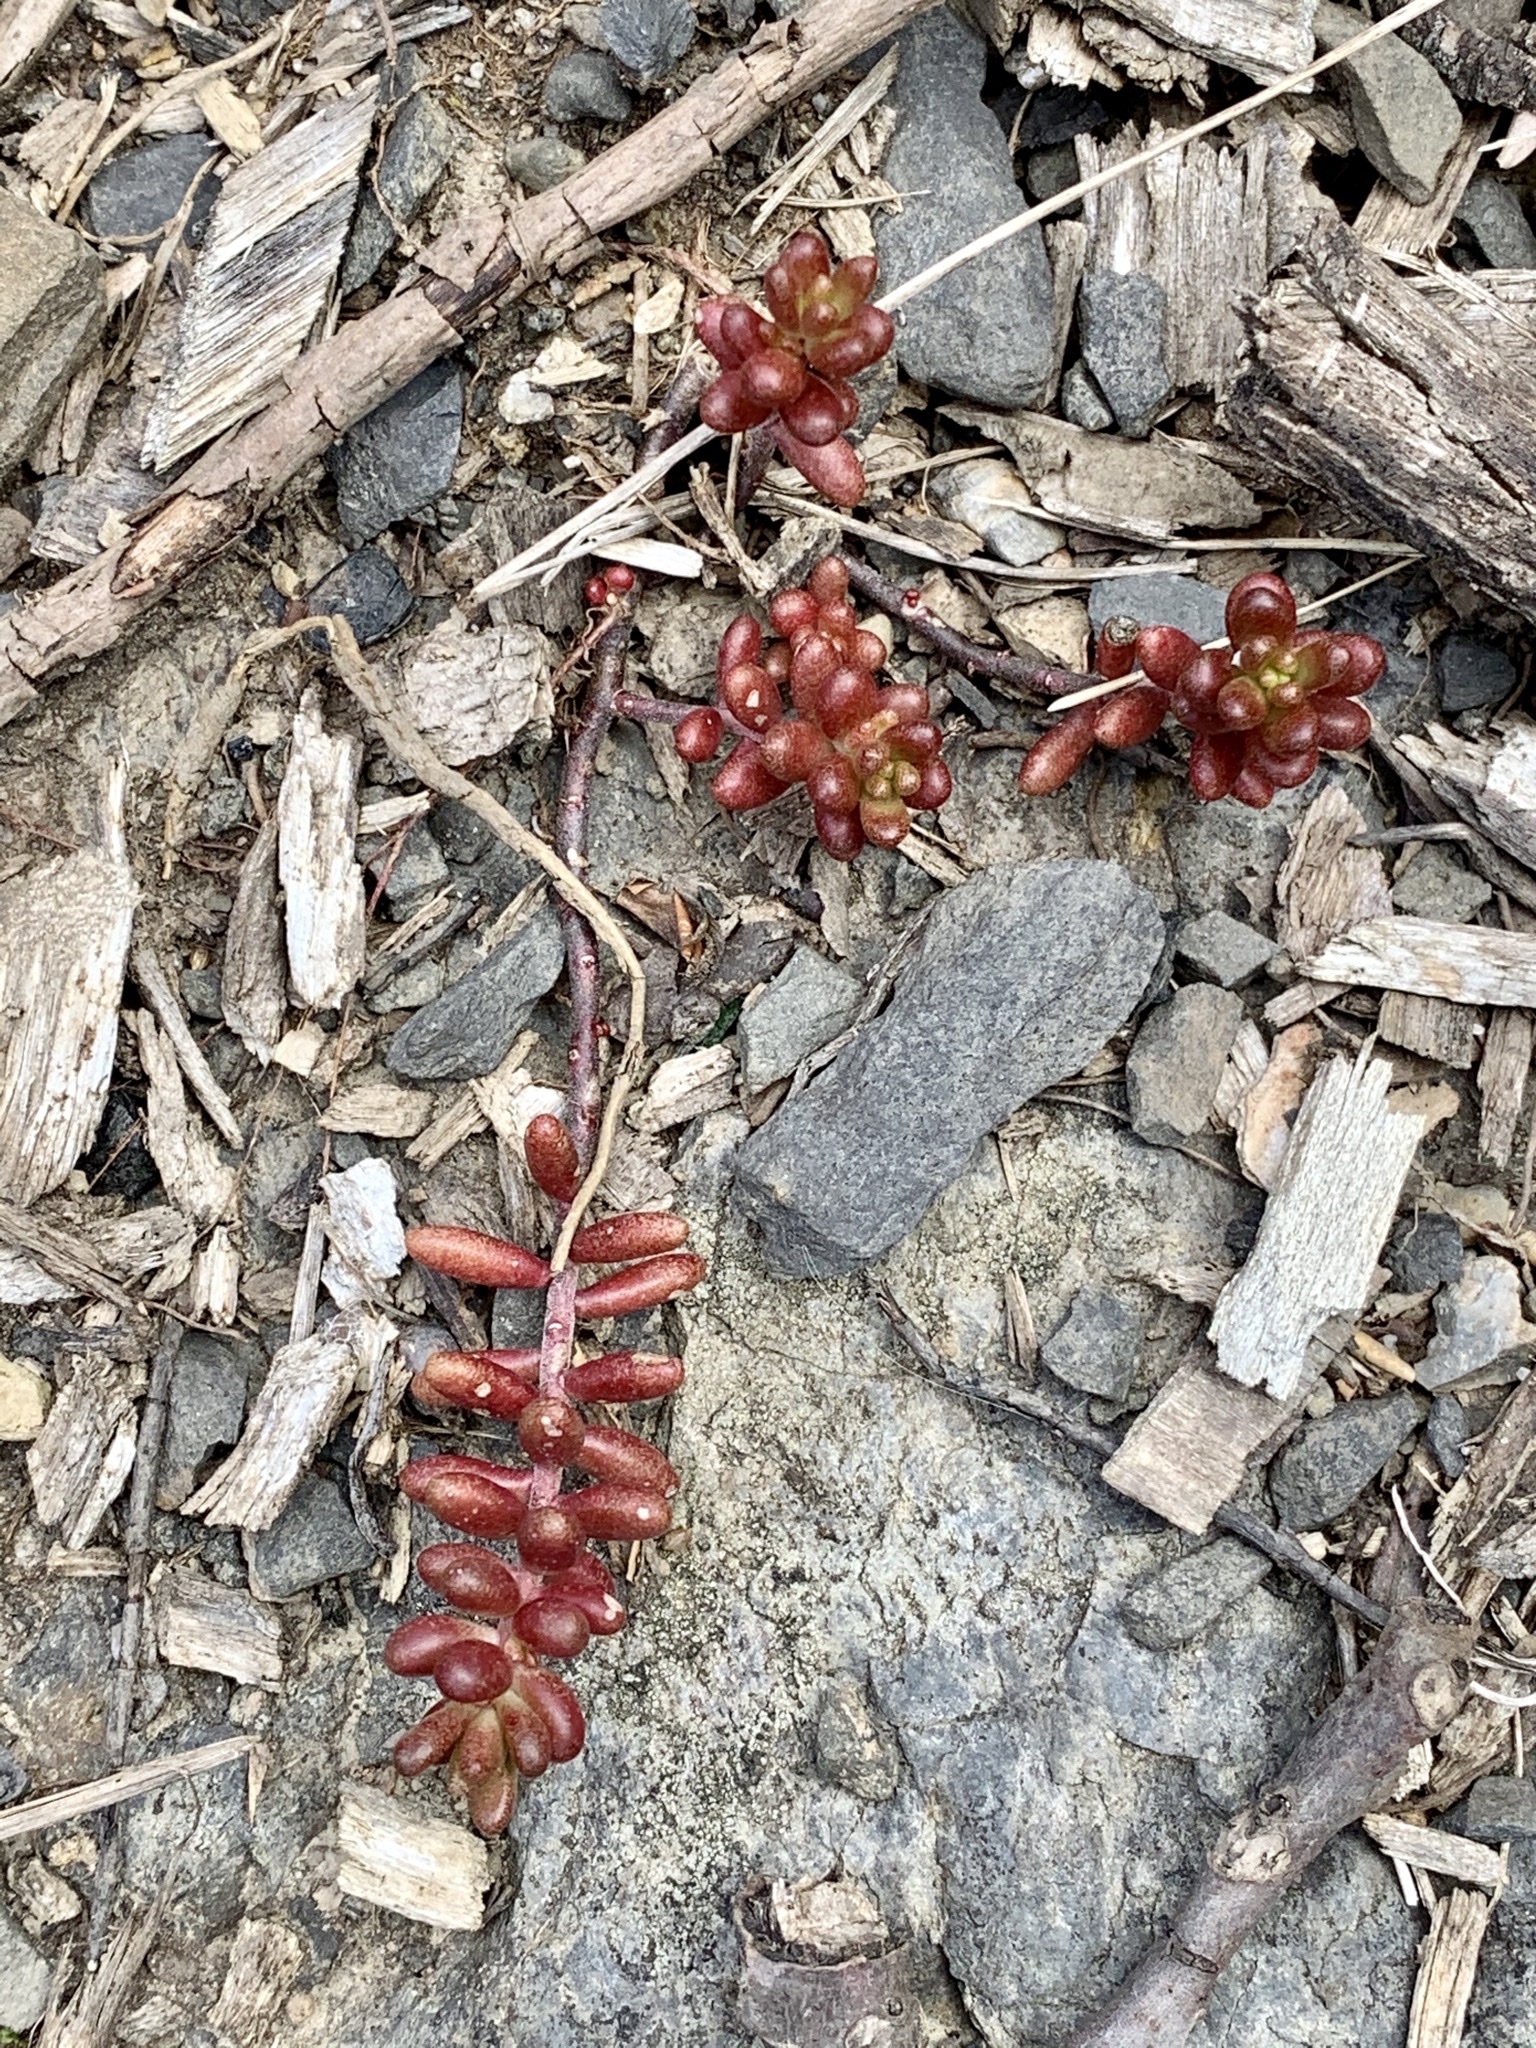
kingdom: Plantae
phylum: Tracheophyta
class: Magnoliopsida
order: Saxifragales
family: Crassulaceae
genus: Sedum
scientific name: Sedum album
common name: White stonecrop
